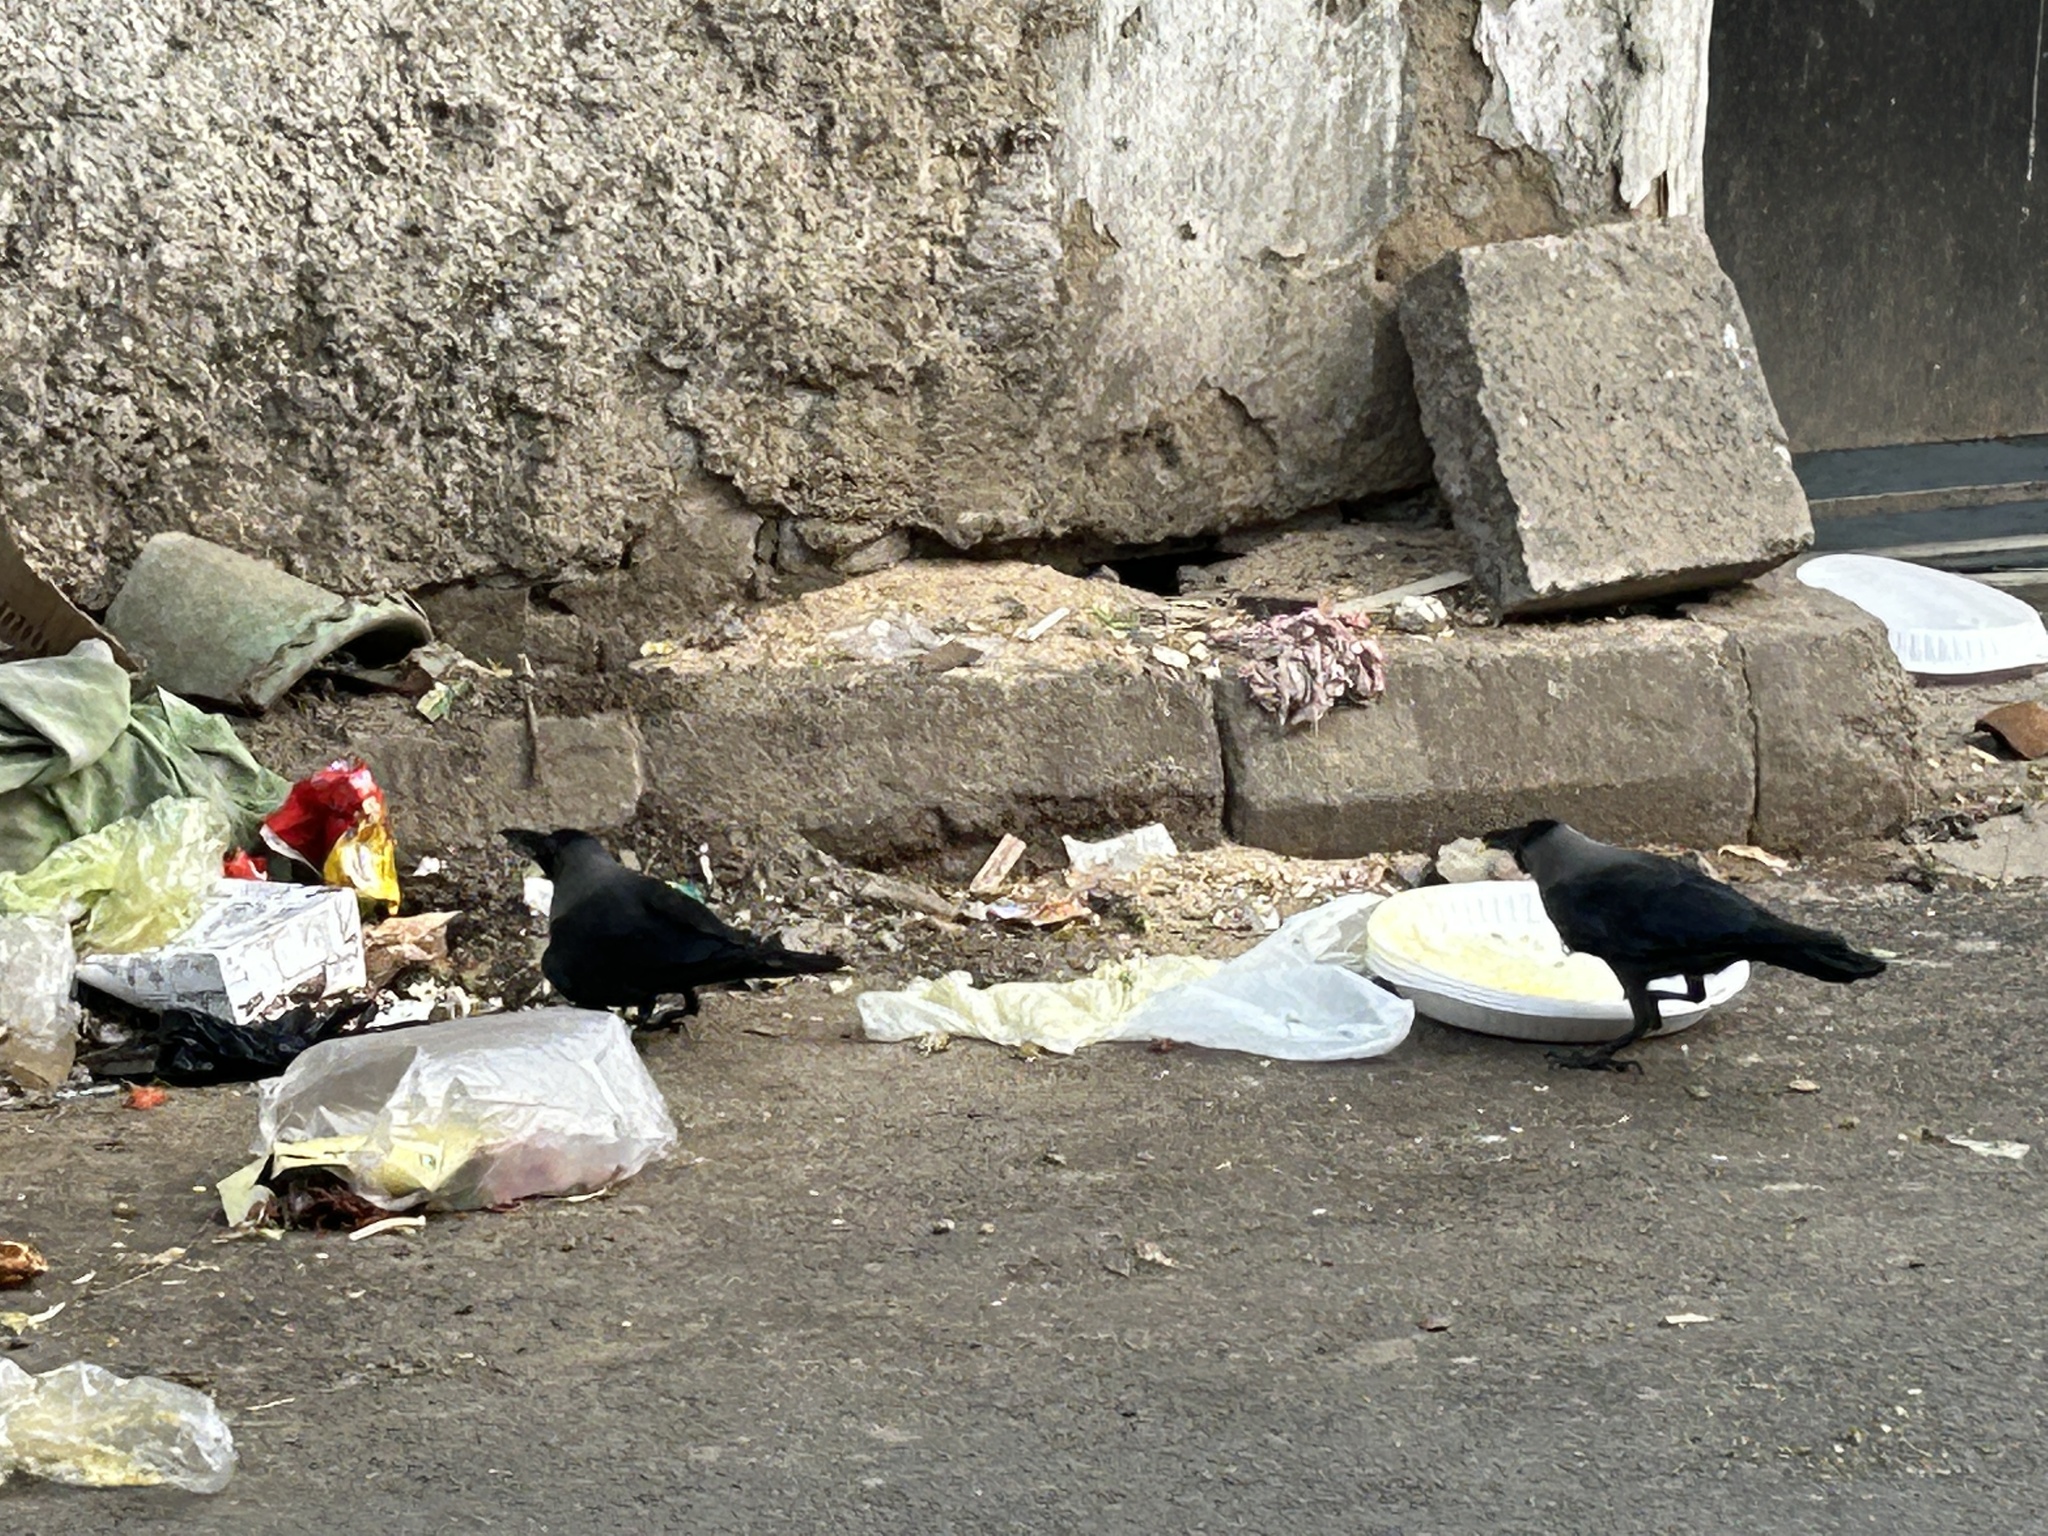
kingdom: Animalia
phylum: Chordata
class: Aves
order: Passeriformes
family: Corvidae
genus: Corvus
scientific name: Corvus splendens
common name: House crow
